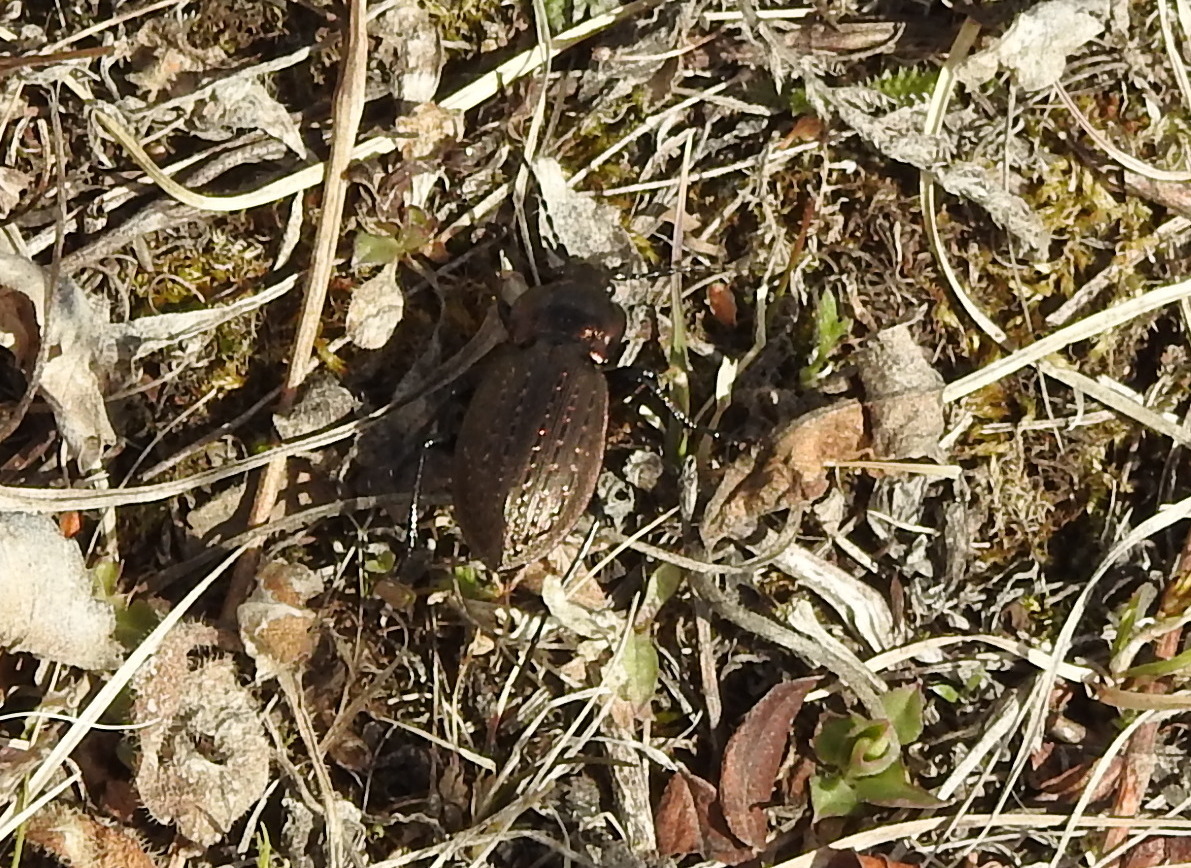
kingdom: Animalia
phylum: Arthropoda
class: Insecta
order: Coleoptera
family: Carabidae
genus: Carabus
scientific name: Carabus billbergi
